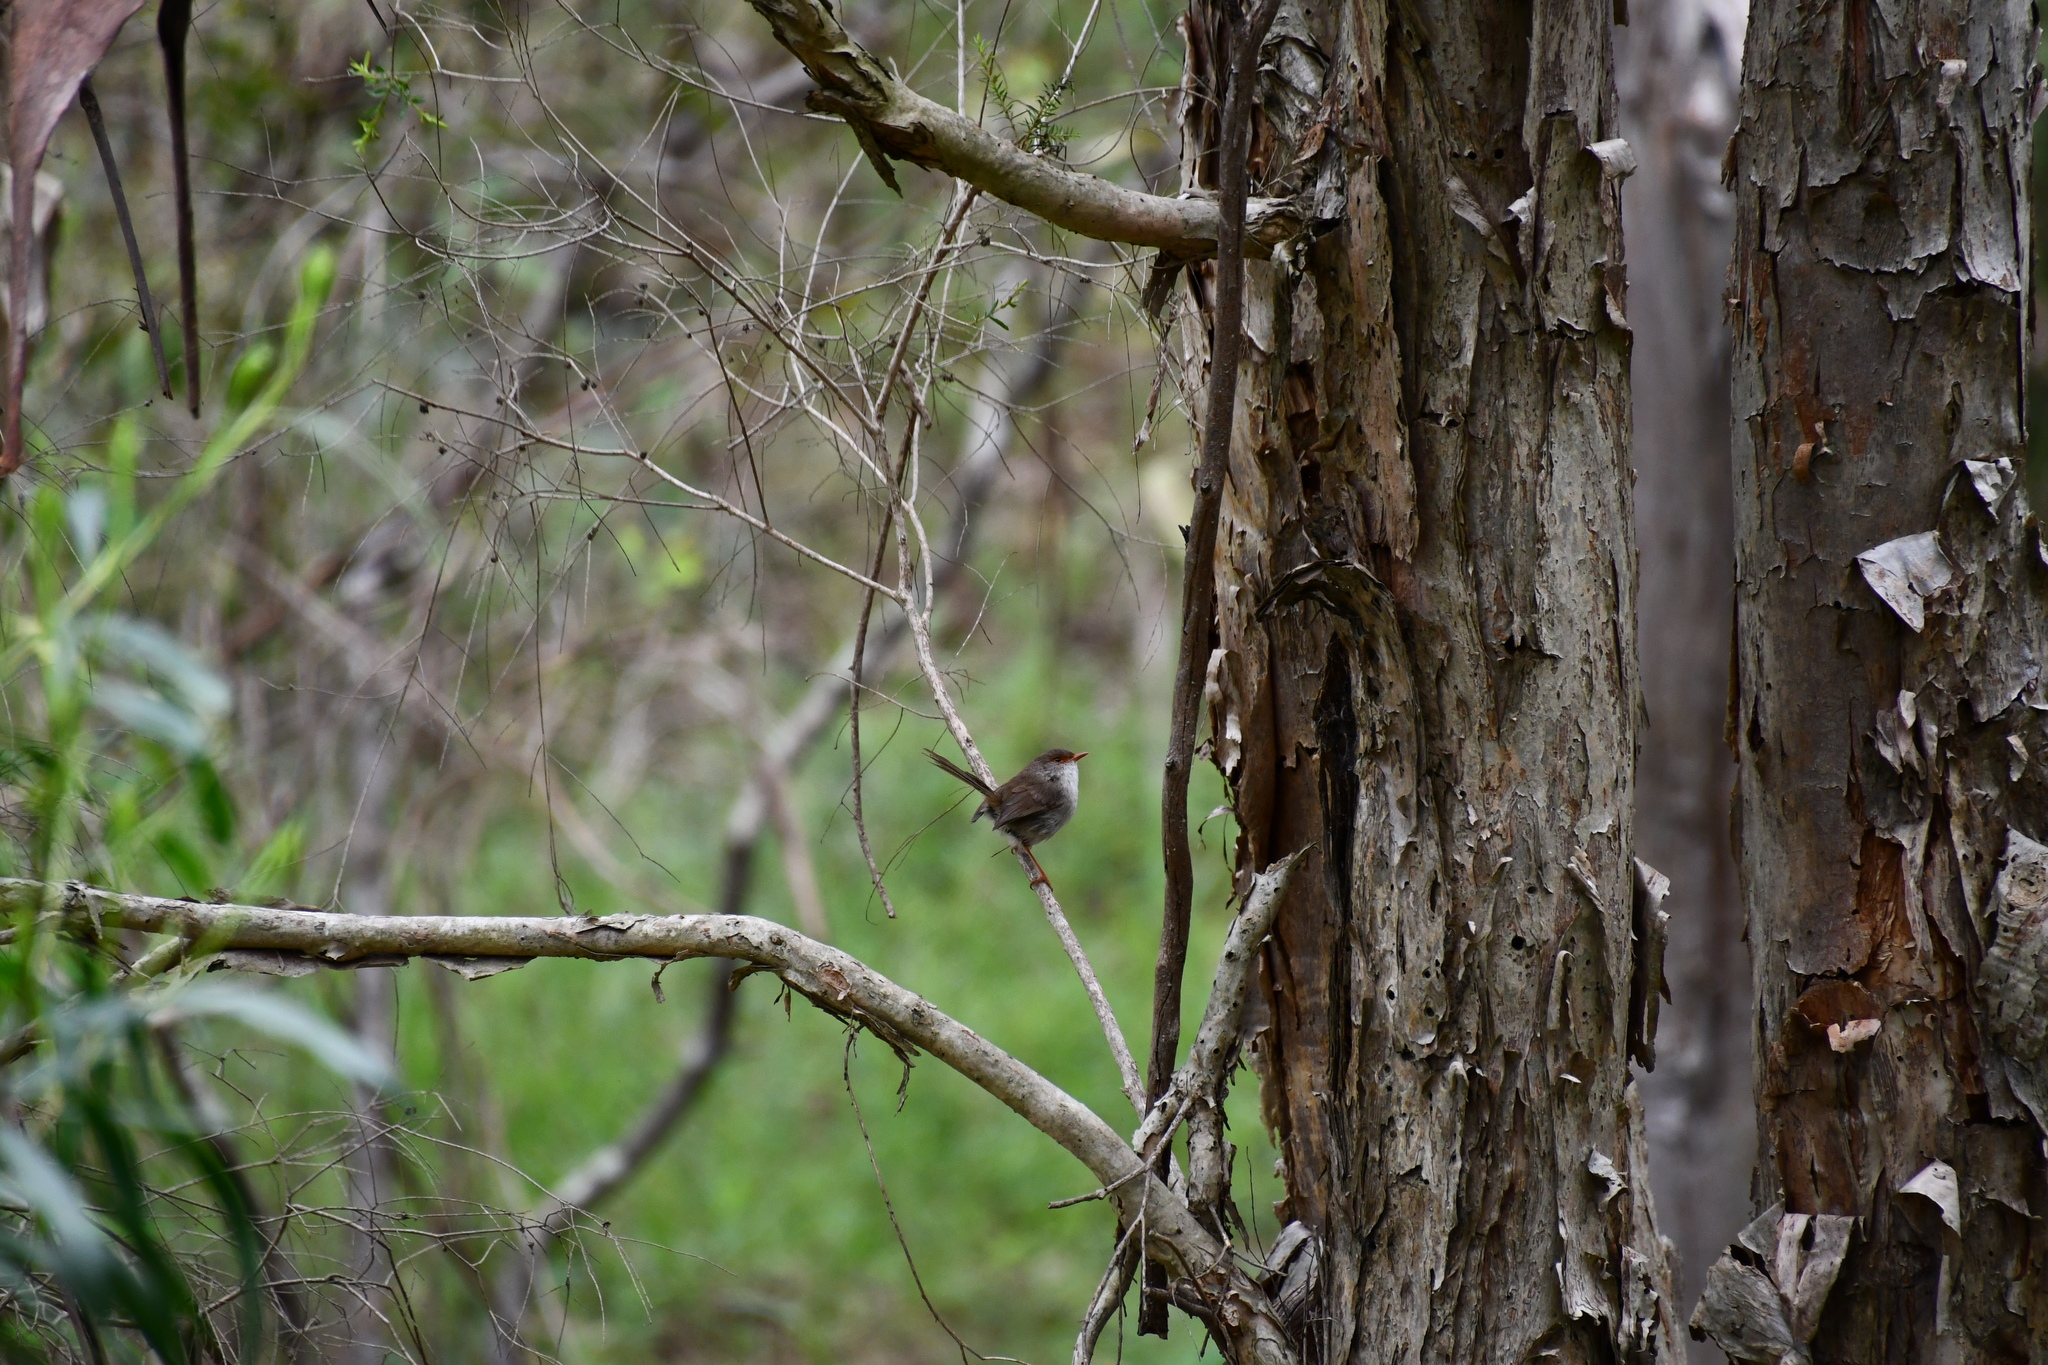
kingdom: Animalia
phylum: Chordata
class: Aves
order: Passeriformes
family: Maluridae
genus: Malurus
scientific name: Malurus cyaneus
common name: Superb fairywren
